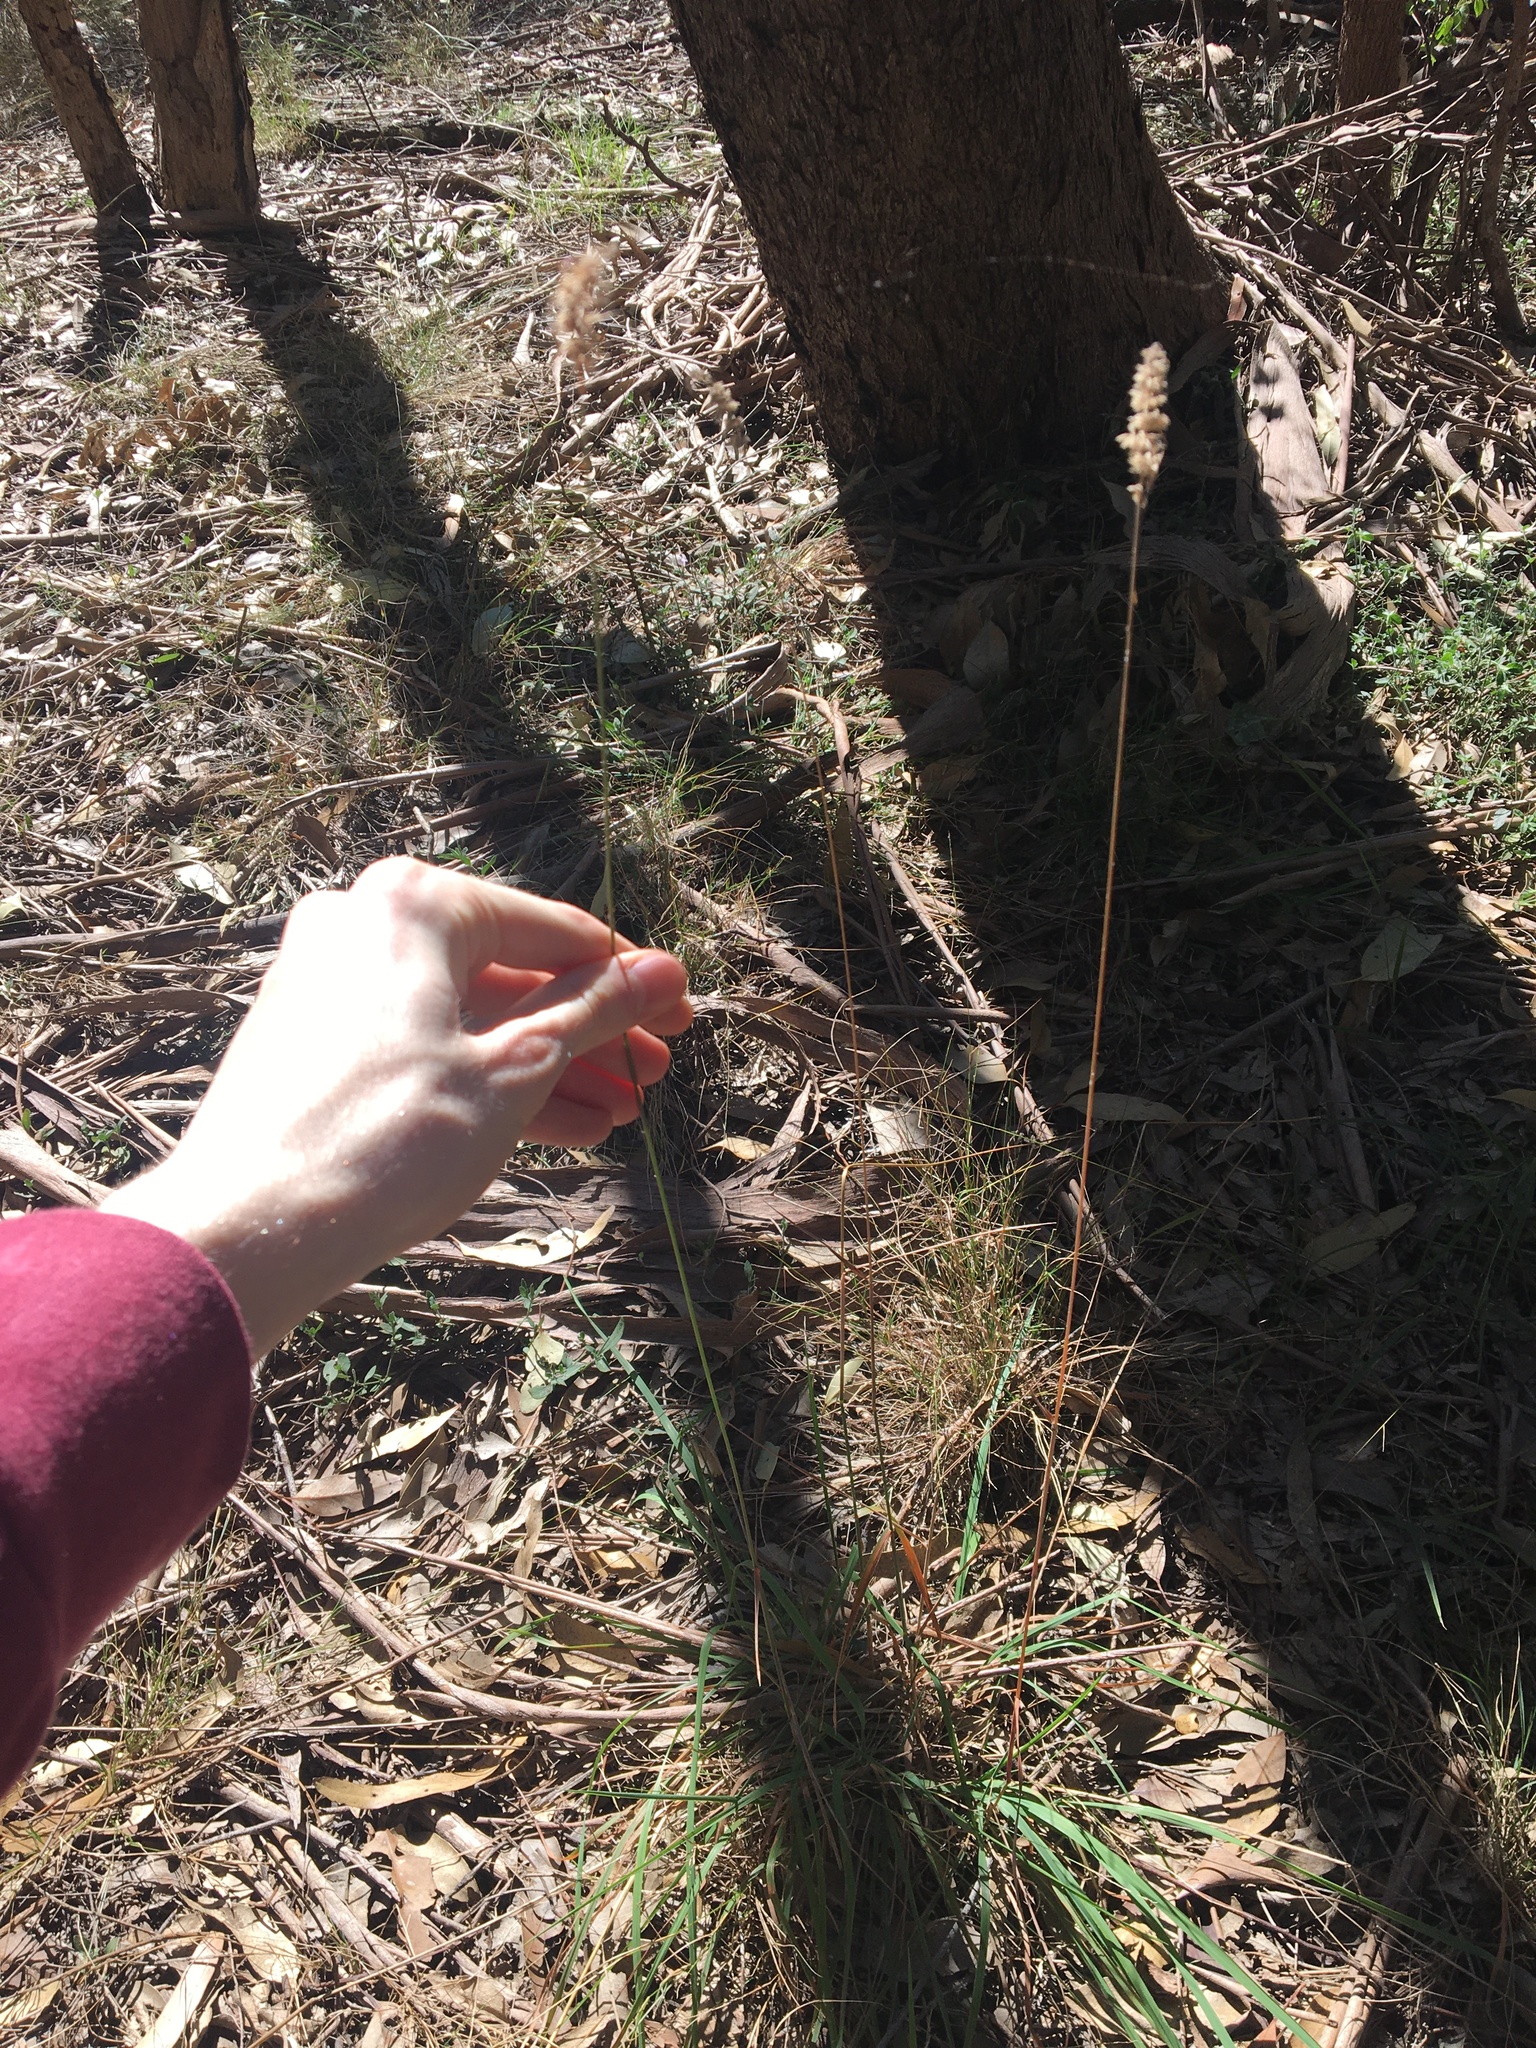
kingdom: Plantae
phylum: Tracheophyta
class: Liliopsida
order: Poales
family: Poaceae
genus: Echinopogon
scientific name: Echinopogon caespitosus
